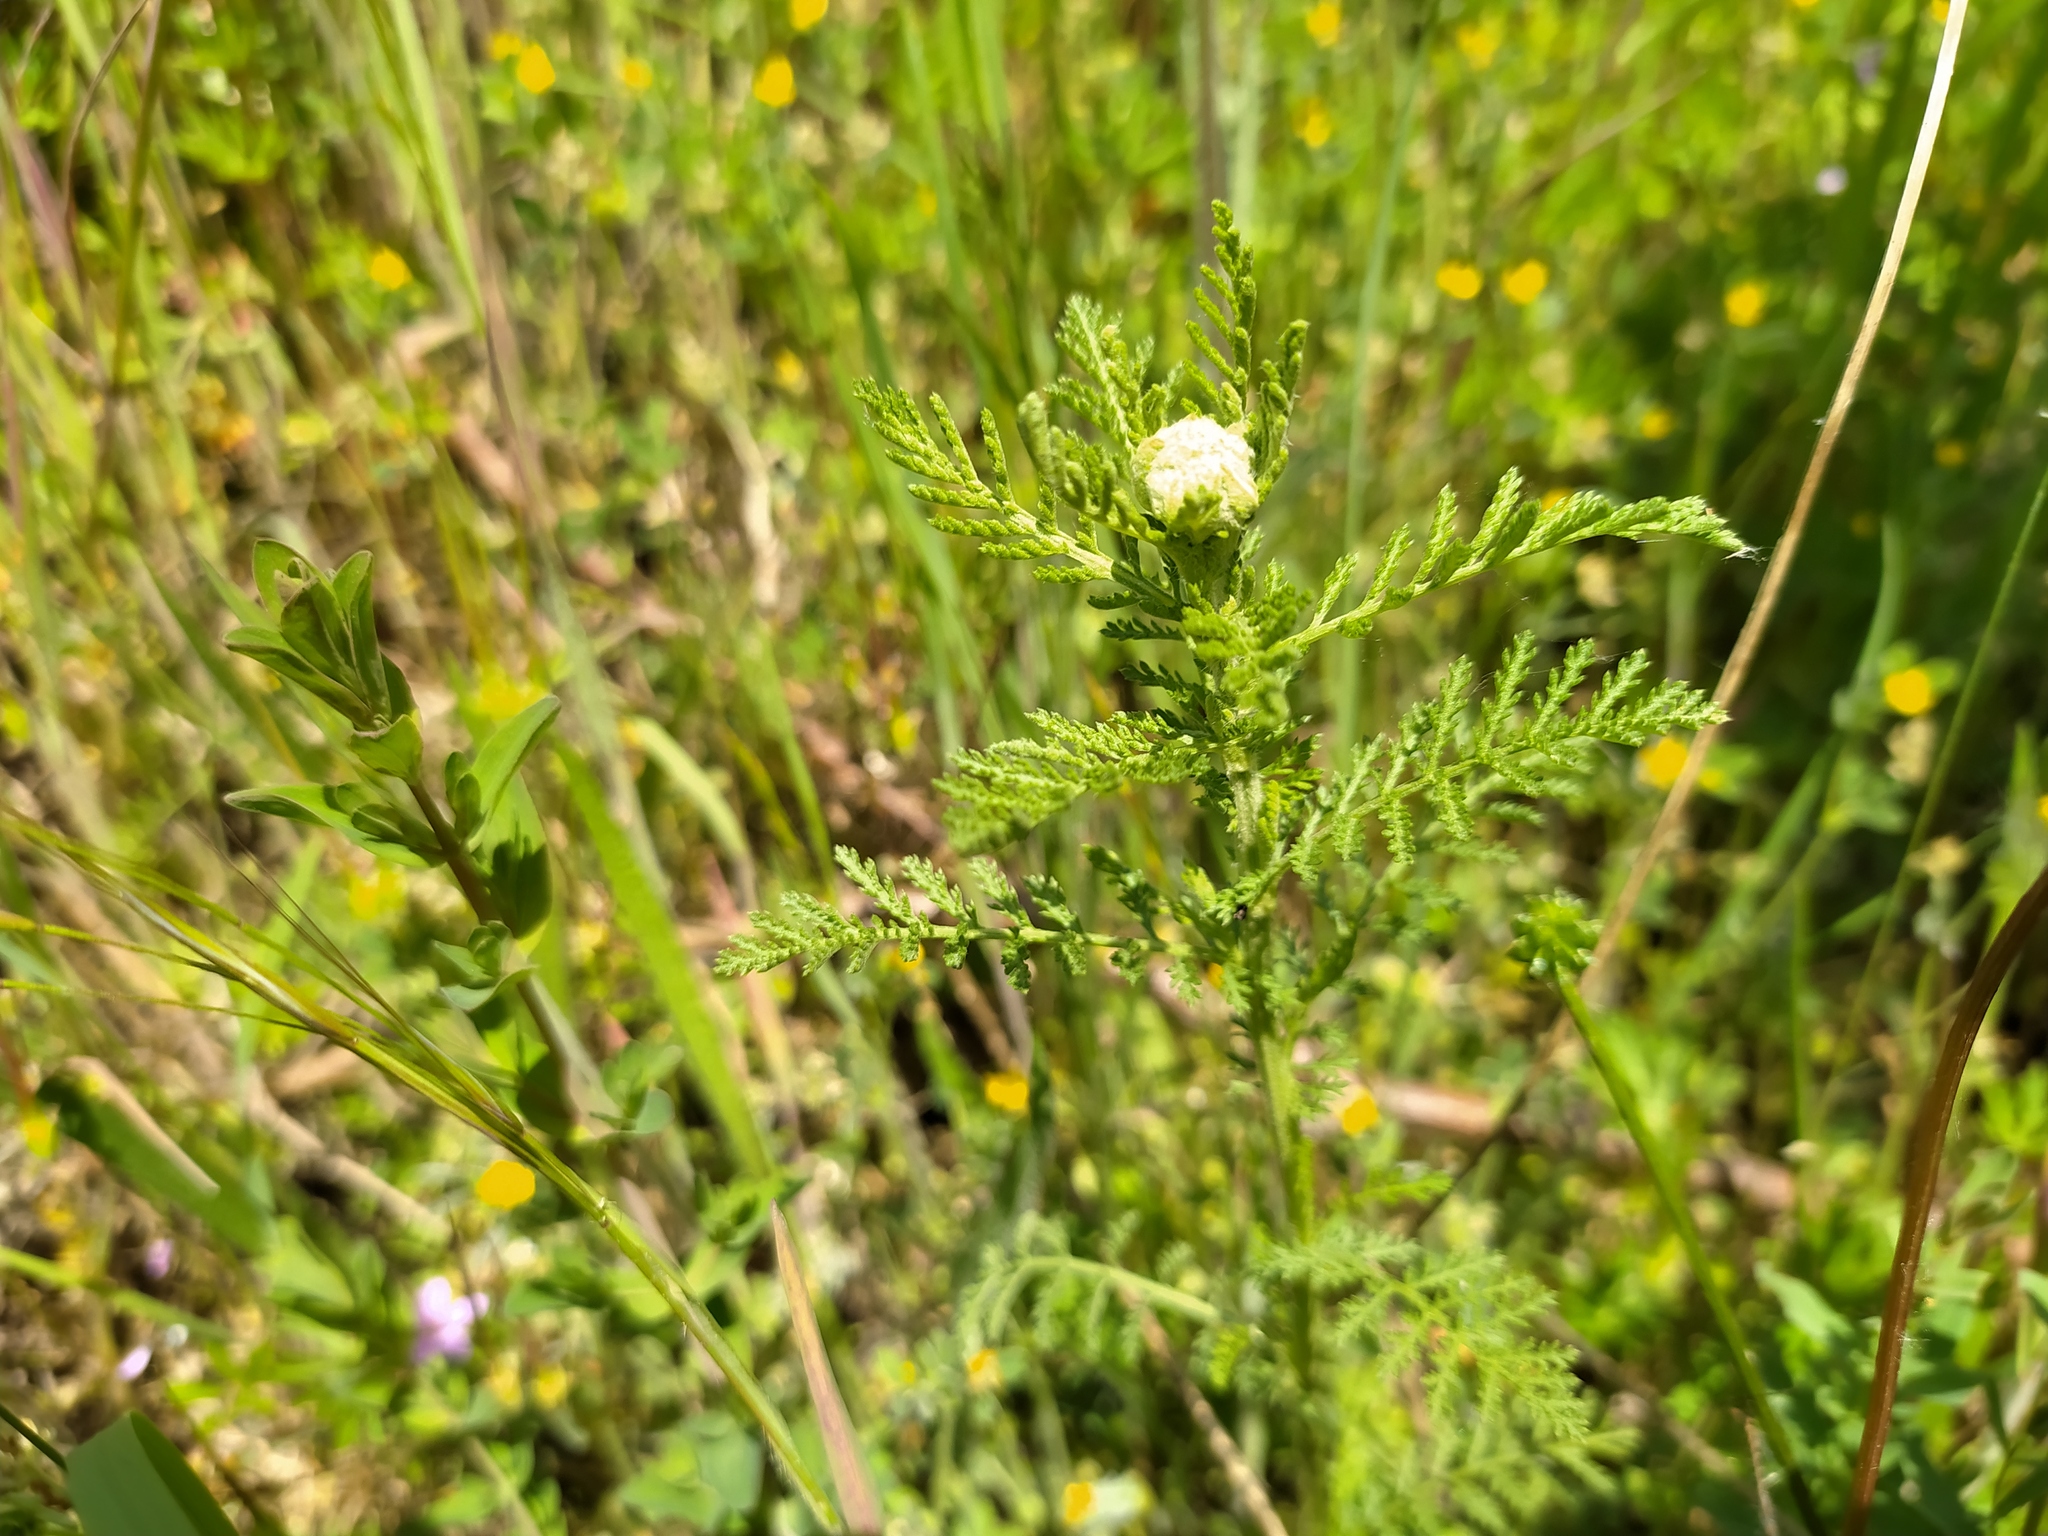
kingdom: Plantae
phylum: Tracheophyta
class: Magnoliopsida
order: Asterales
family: Asteraceae
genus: Achillea
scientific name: Achillea nobilis
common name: Noble yarrow
